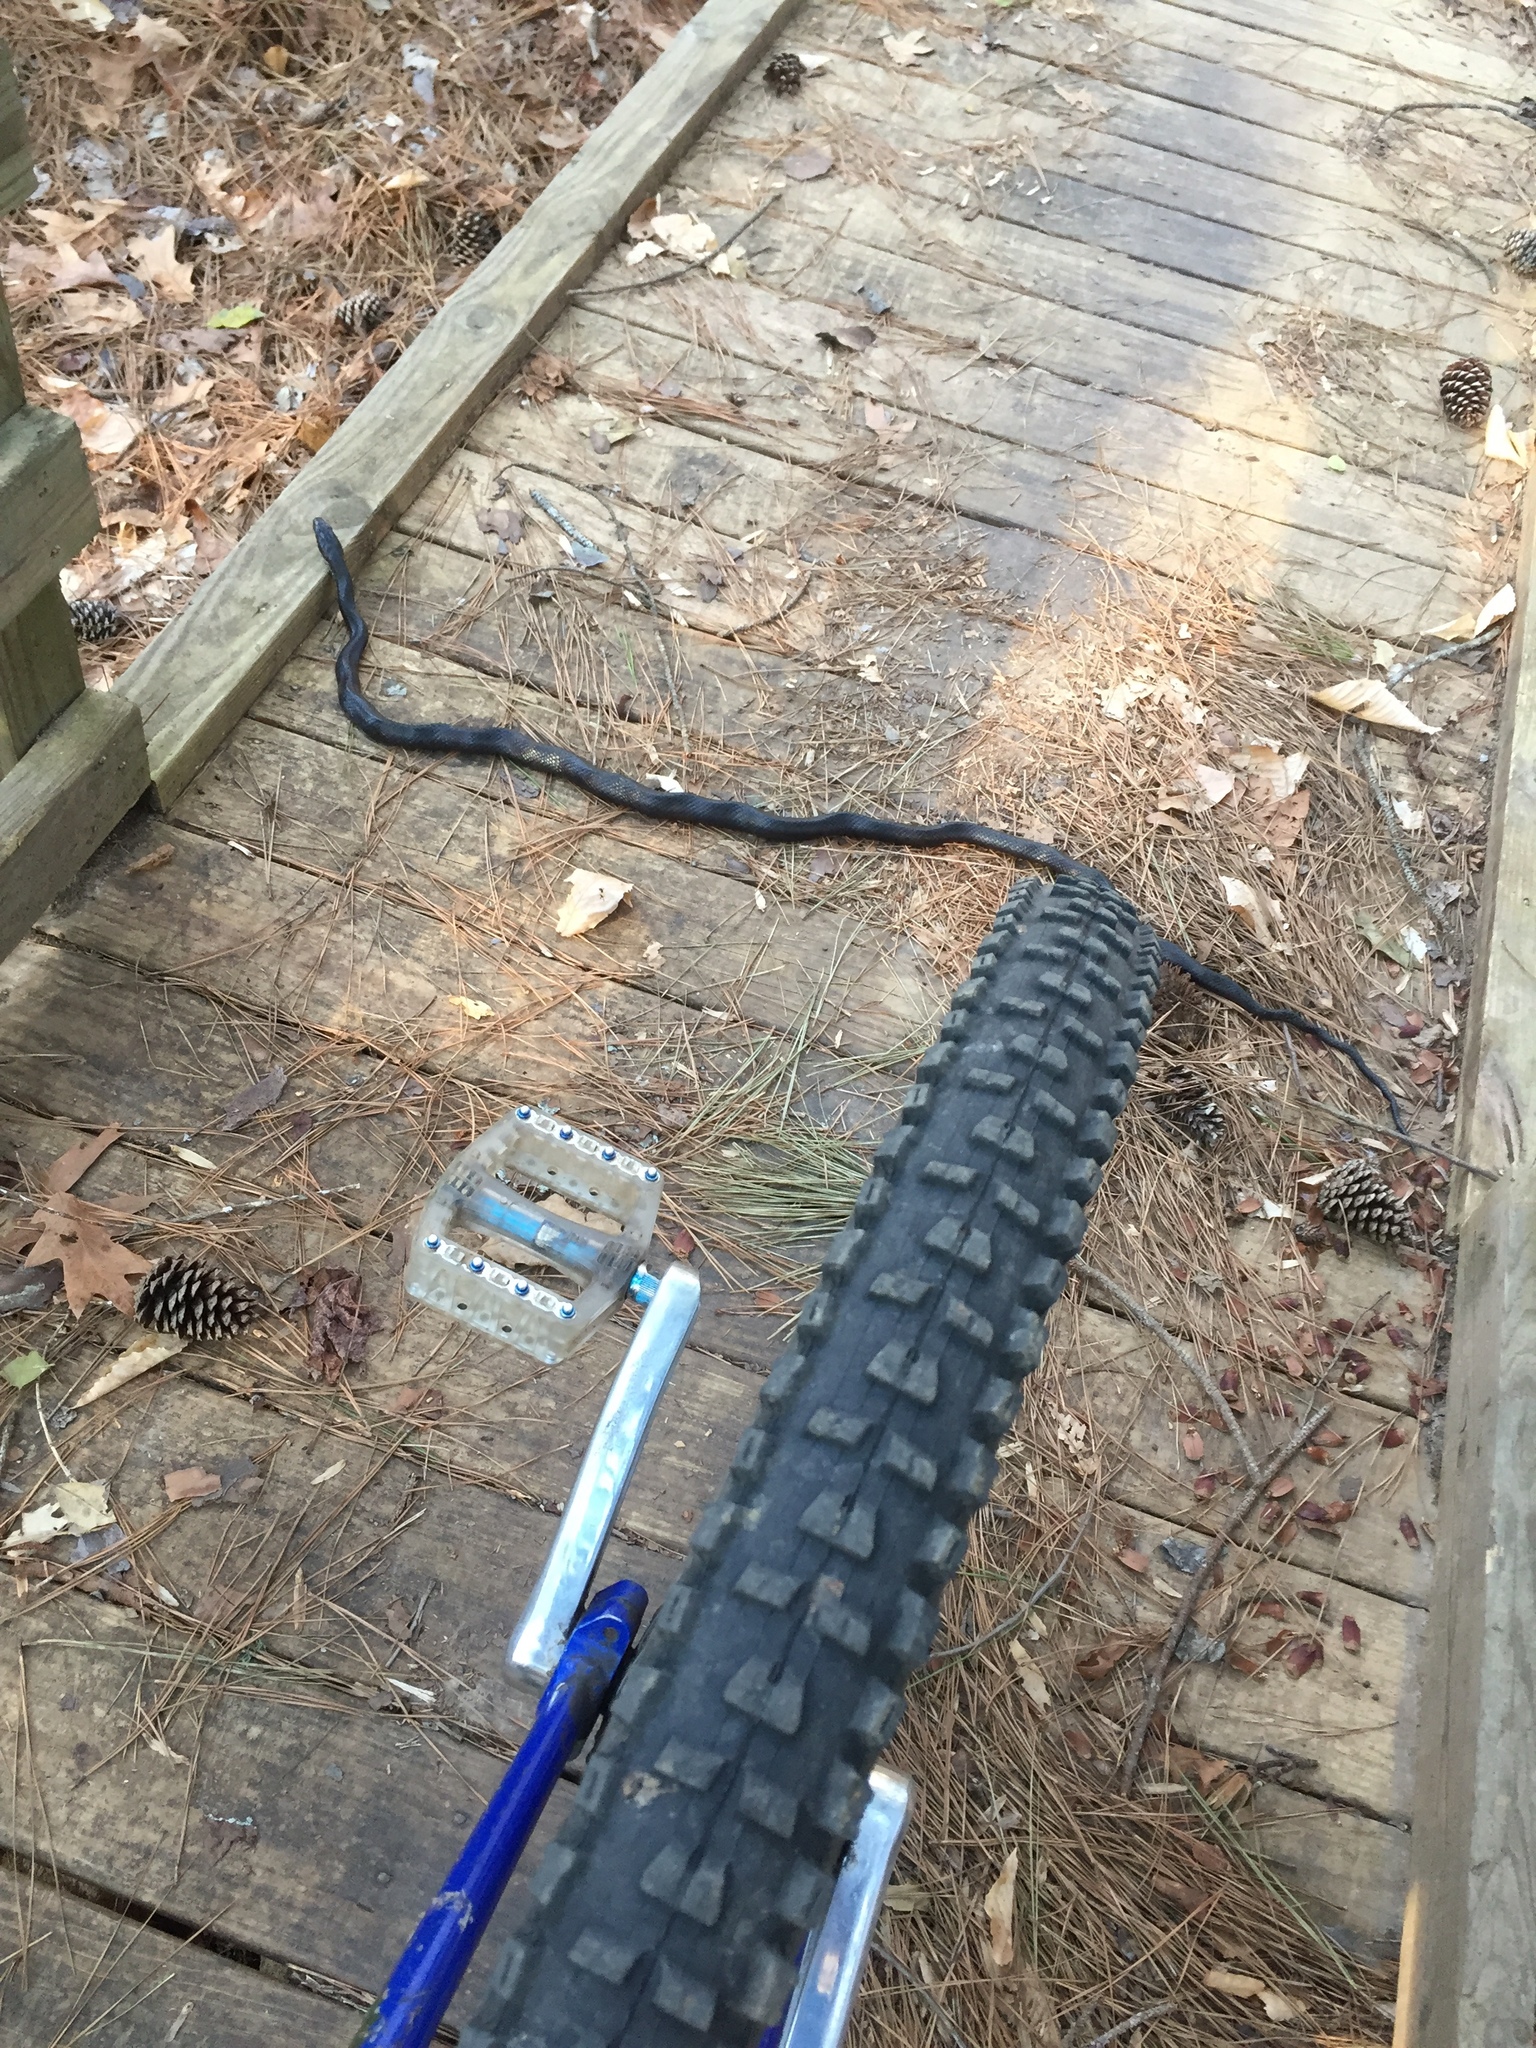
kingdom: Animalia
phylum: Chordata
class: Squamata
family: Colubridae
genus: Pantherophis
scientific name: Pantherophis alleghaniensis
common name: Eastern rat snake
